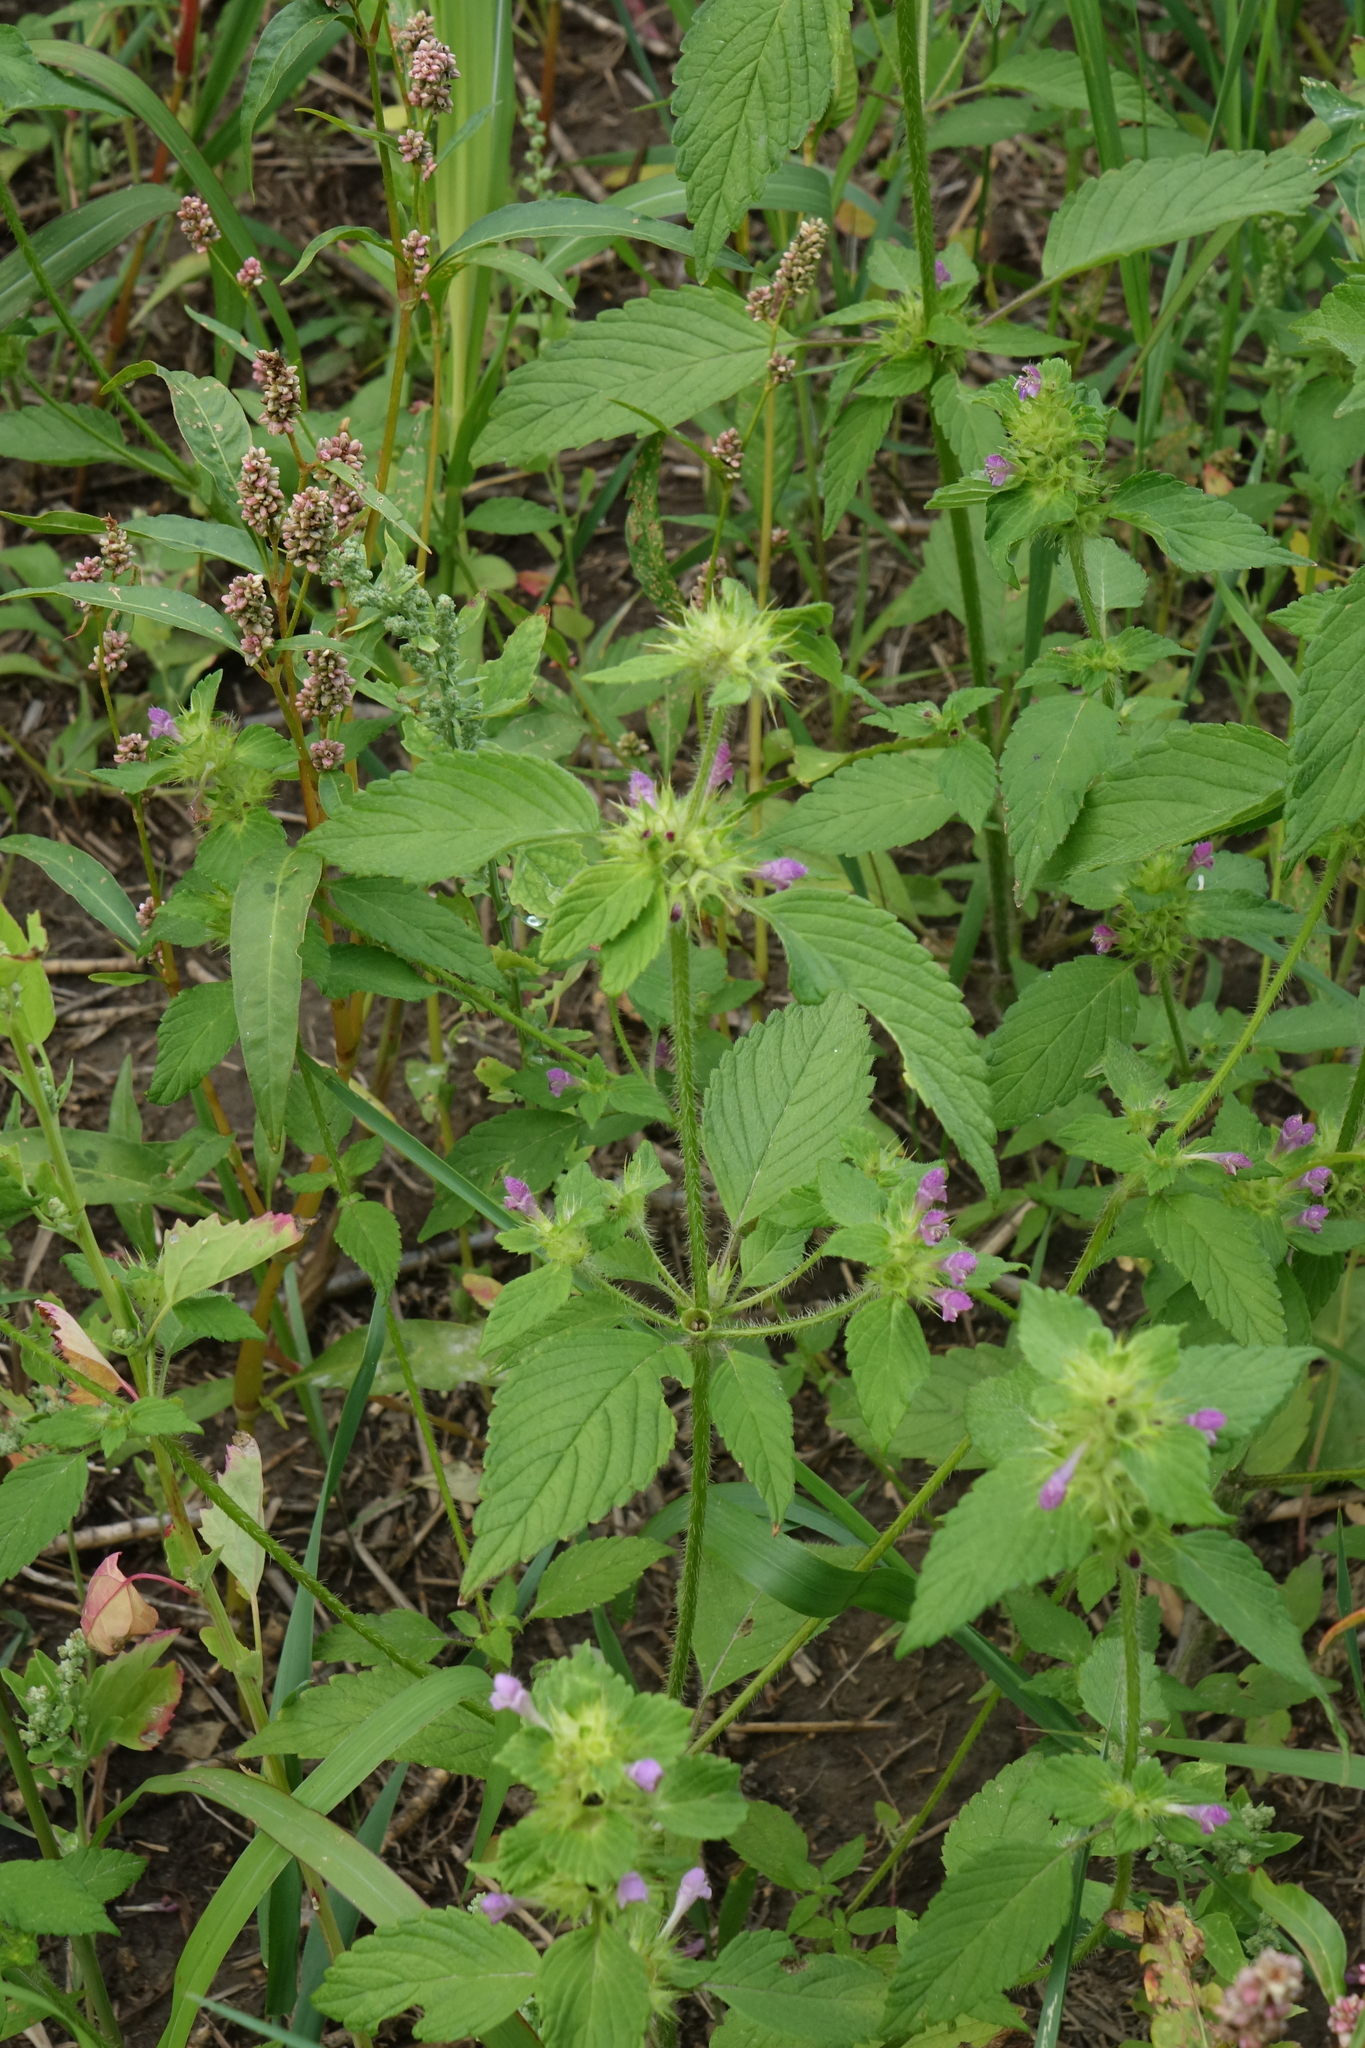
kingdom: Plantae
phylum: Tracheophyta
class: Magnoliopsida
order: Lamiales
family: Lamiaceae
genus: Galeopsis
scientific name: Galeopsis bifida
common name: Bifid hemp-nettle
